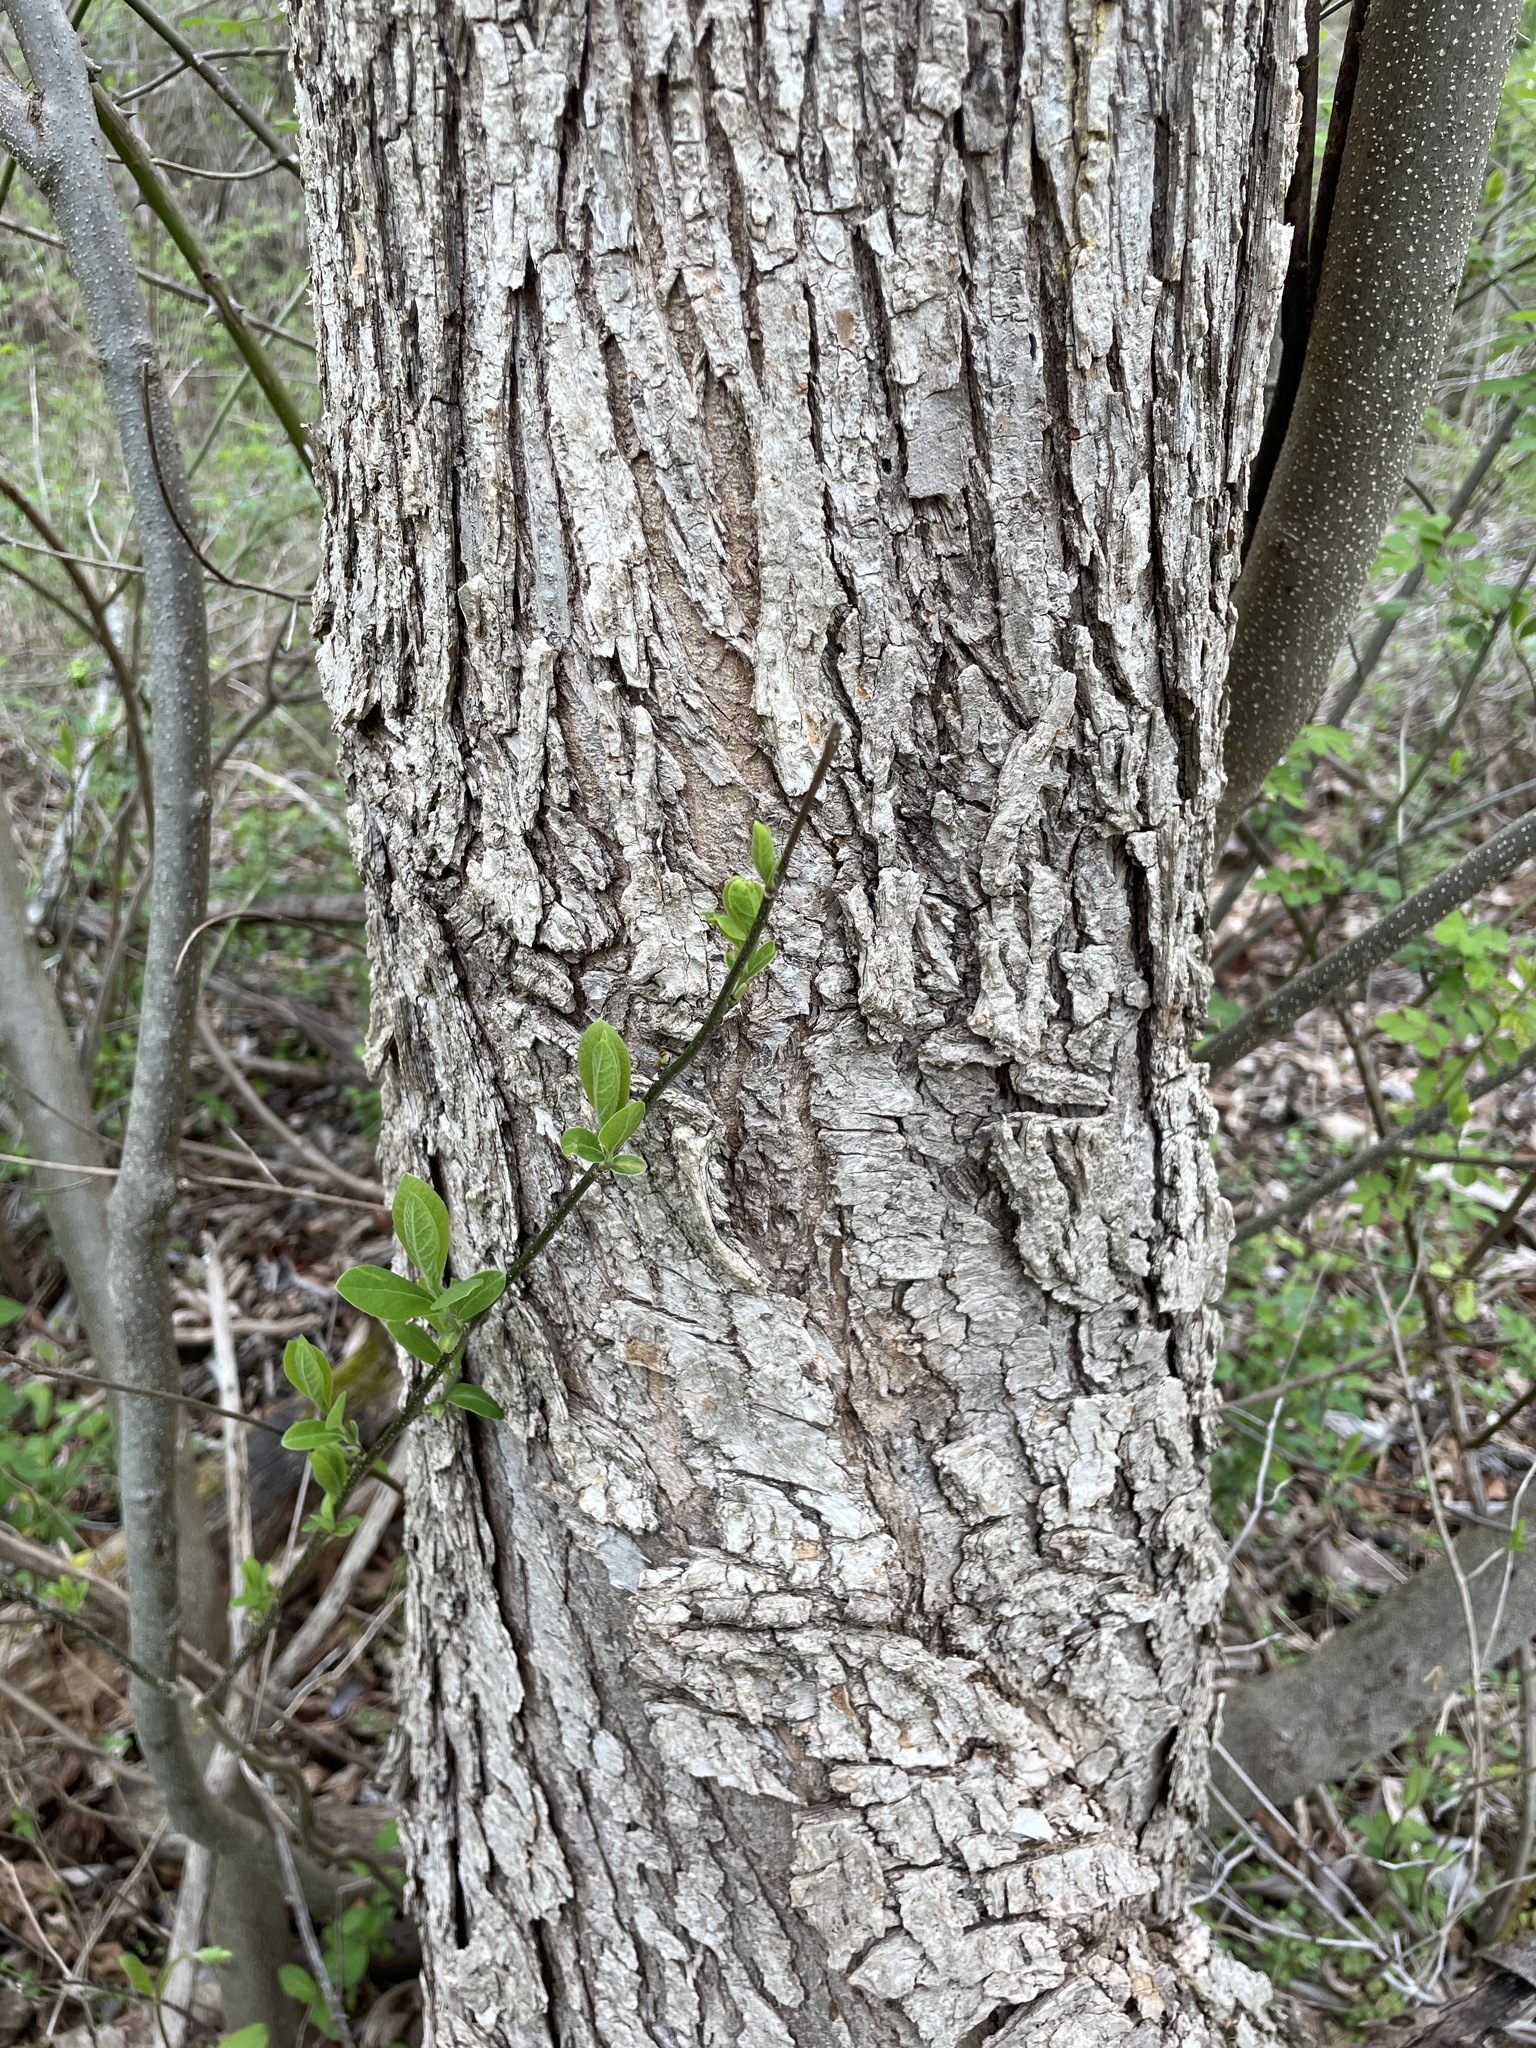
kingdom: Plantae
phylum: Tracheophyta
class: Magnoliopsida
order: Rosales
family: Ulmaceae
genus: Ulmus
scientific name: Ulmus rubra
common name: Slippery elm
